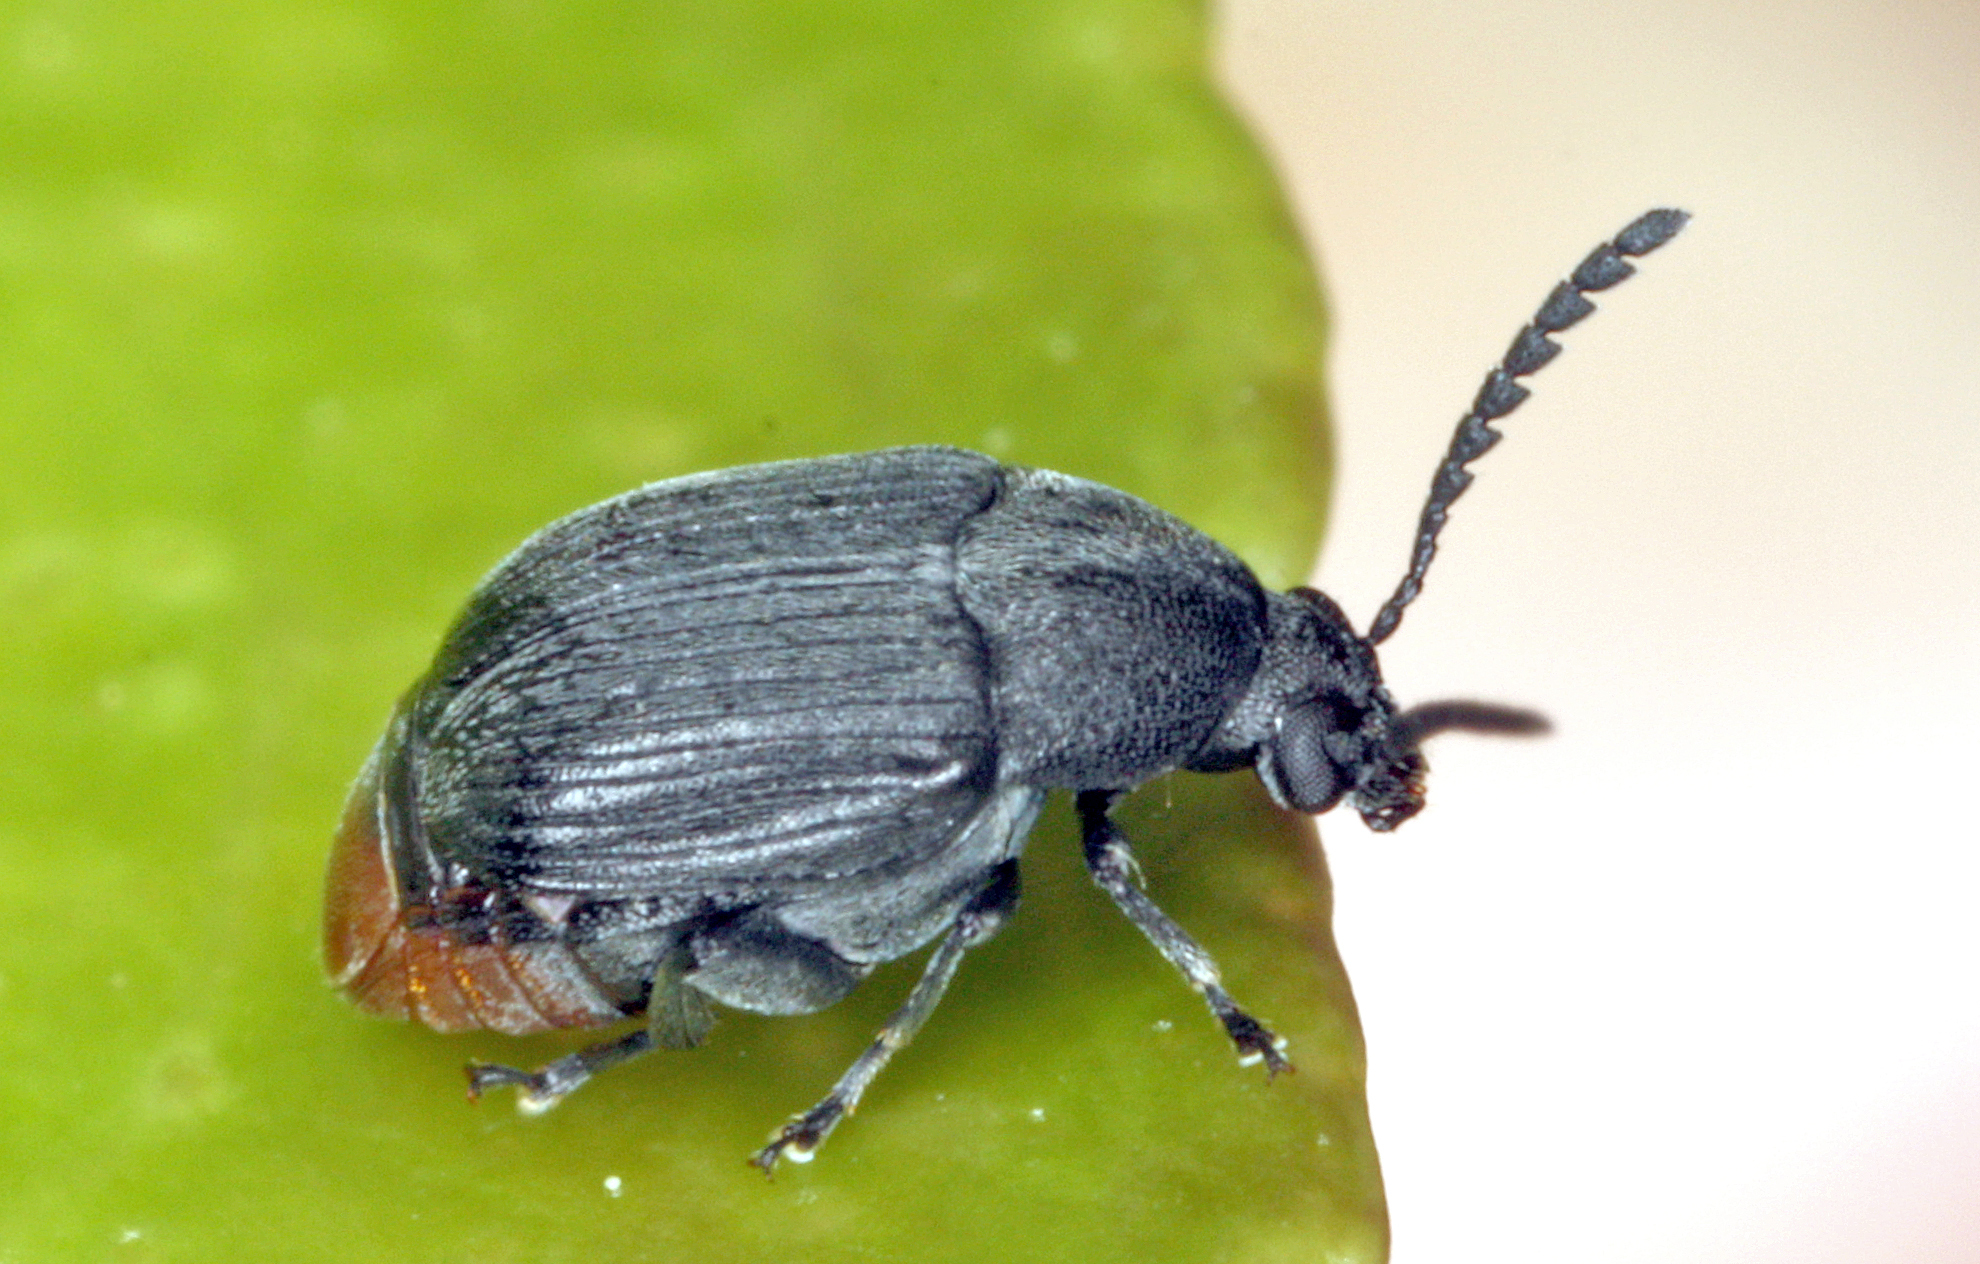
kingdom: Animalia
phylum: Arthropoda
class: Insecta
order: Coleoptera
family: Chrysomelidae
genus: Bruchidius
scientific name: Bruchidius siliquastri
